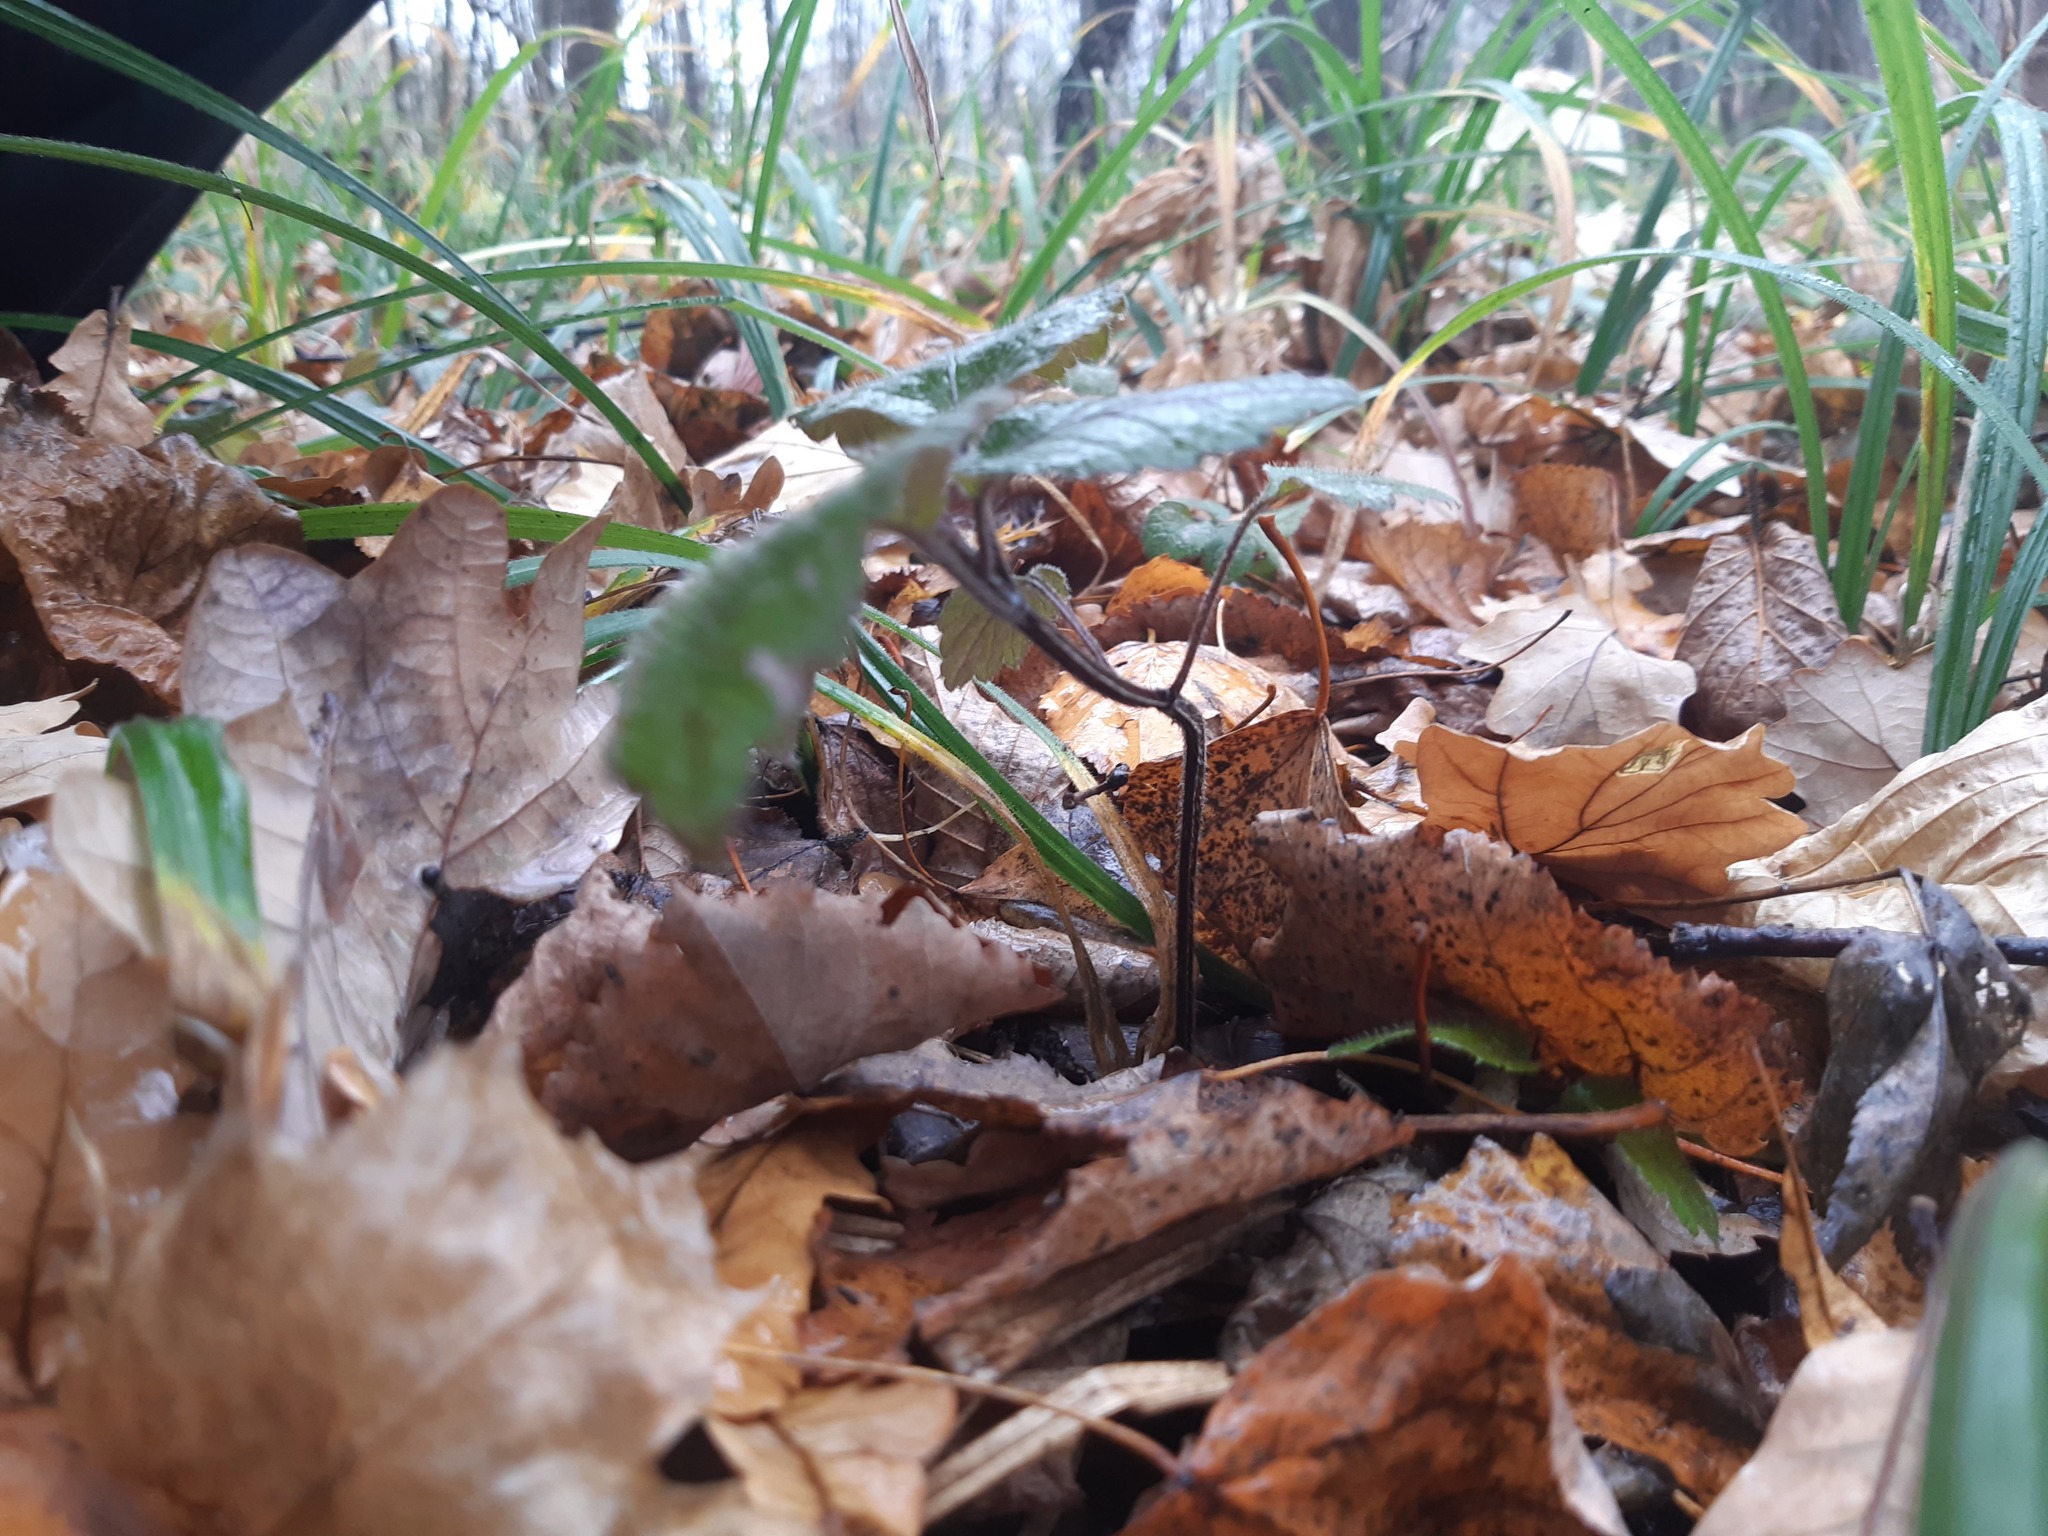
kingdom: Plantae
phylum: Tracheophyta
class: Magnoliopsida
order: Lamiales
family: Lamiaceae
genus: Lamium
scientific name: Lamium galeobdolon
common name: Yellow archangel
